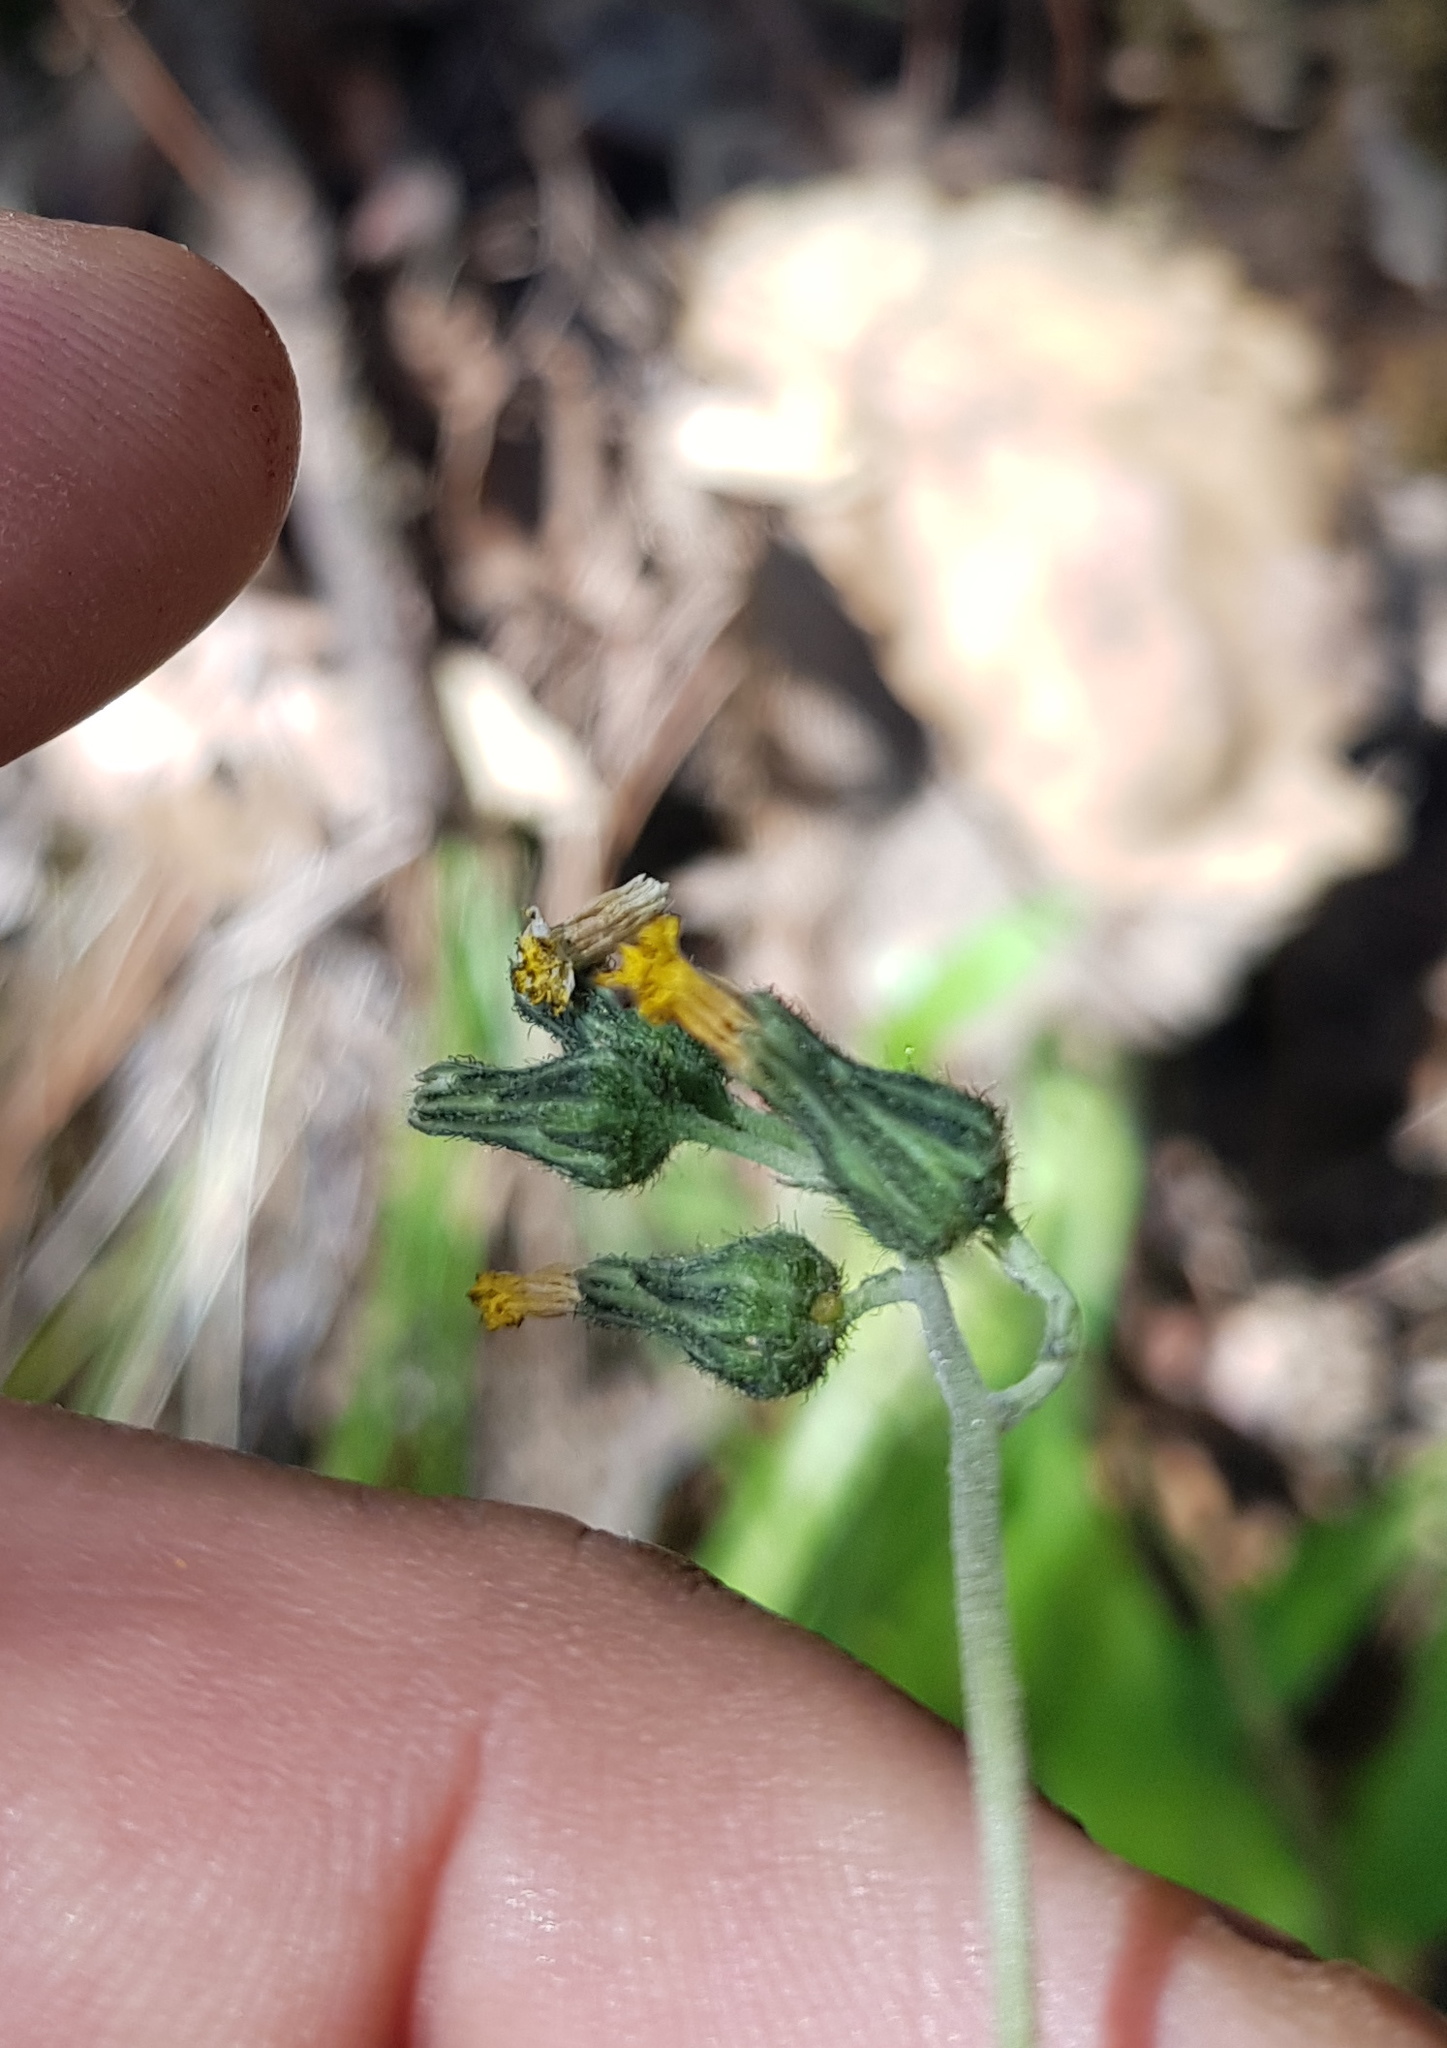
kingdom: Plantae
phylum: Tracheophyta
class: Magnoliopsida
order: Asterales
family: Asteraceae
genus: Hieracium
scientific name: Hieracium abscissum
